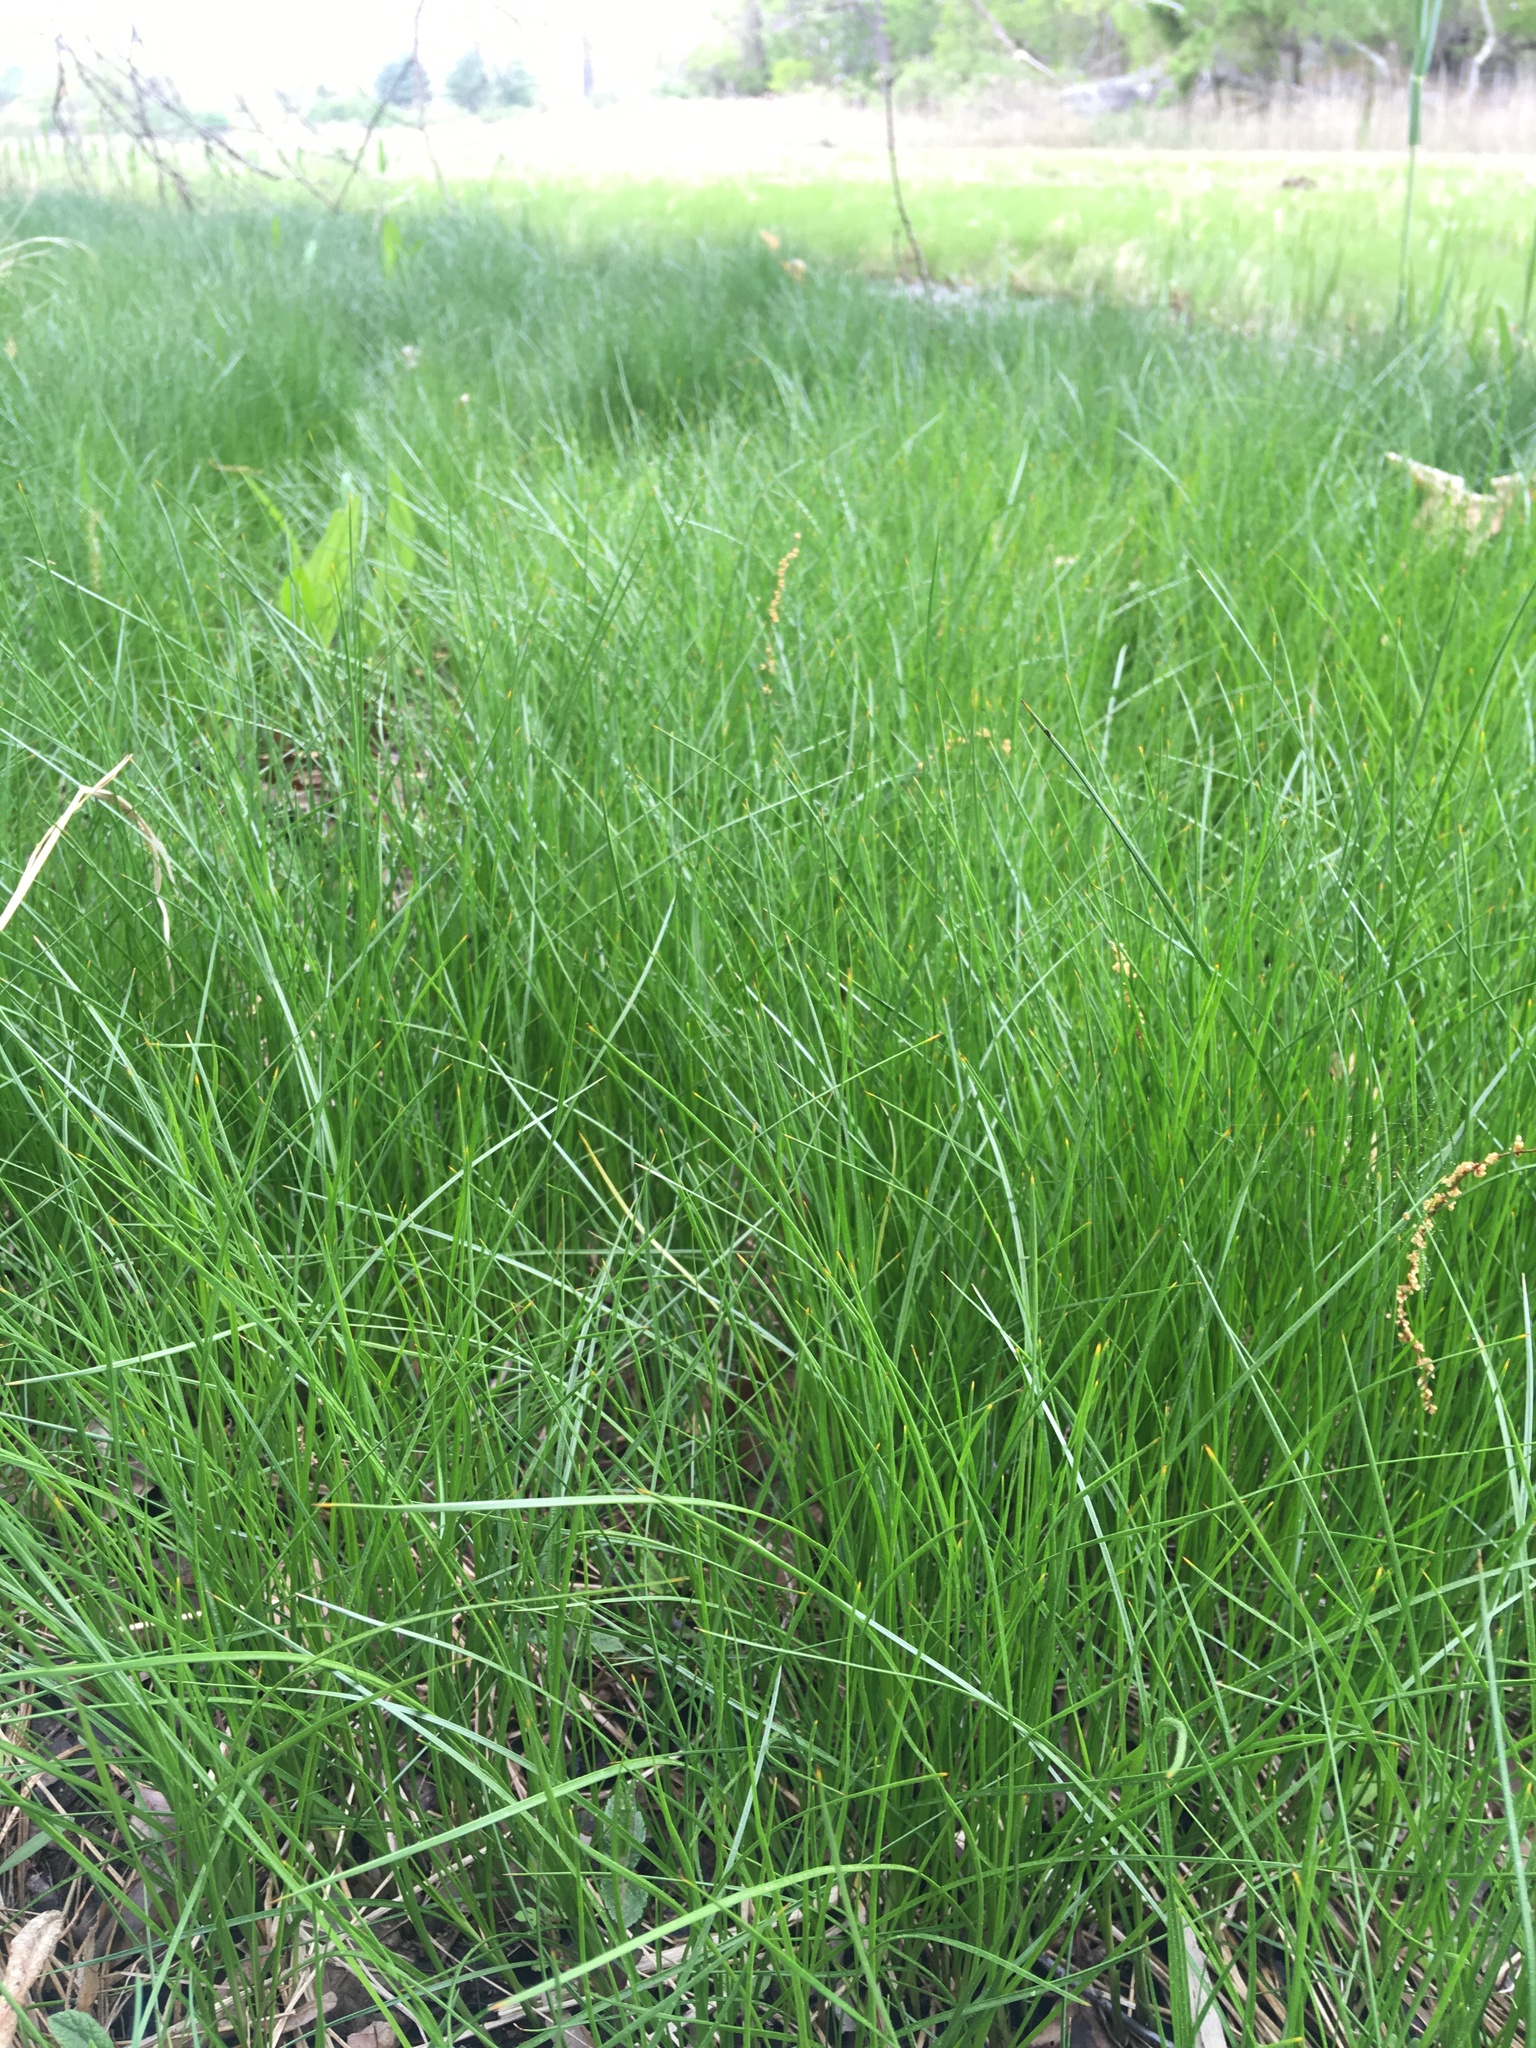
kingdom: Plantae
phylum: Tracheophyta
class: Liliopsida
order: Poales
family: Poaceae
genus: Sporobolus
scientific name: Sporobolus pumilus
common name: Highwater grass
